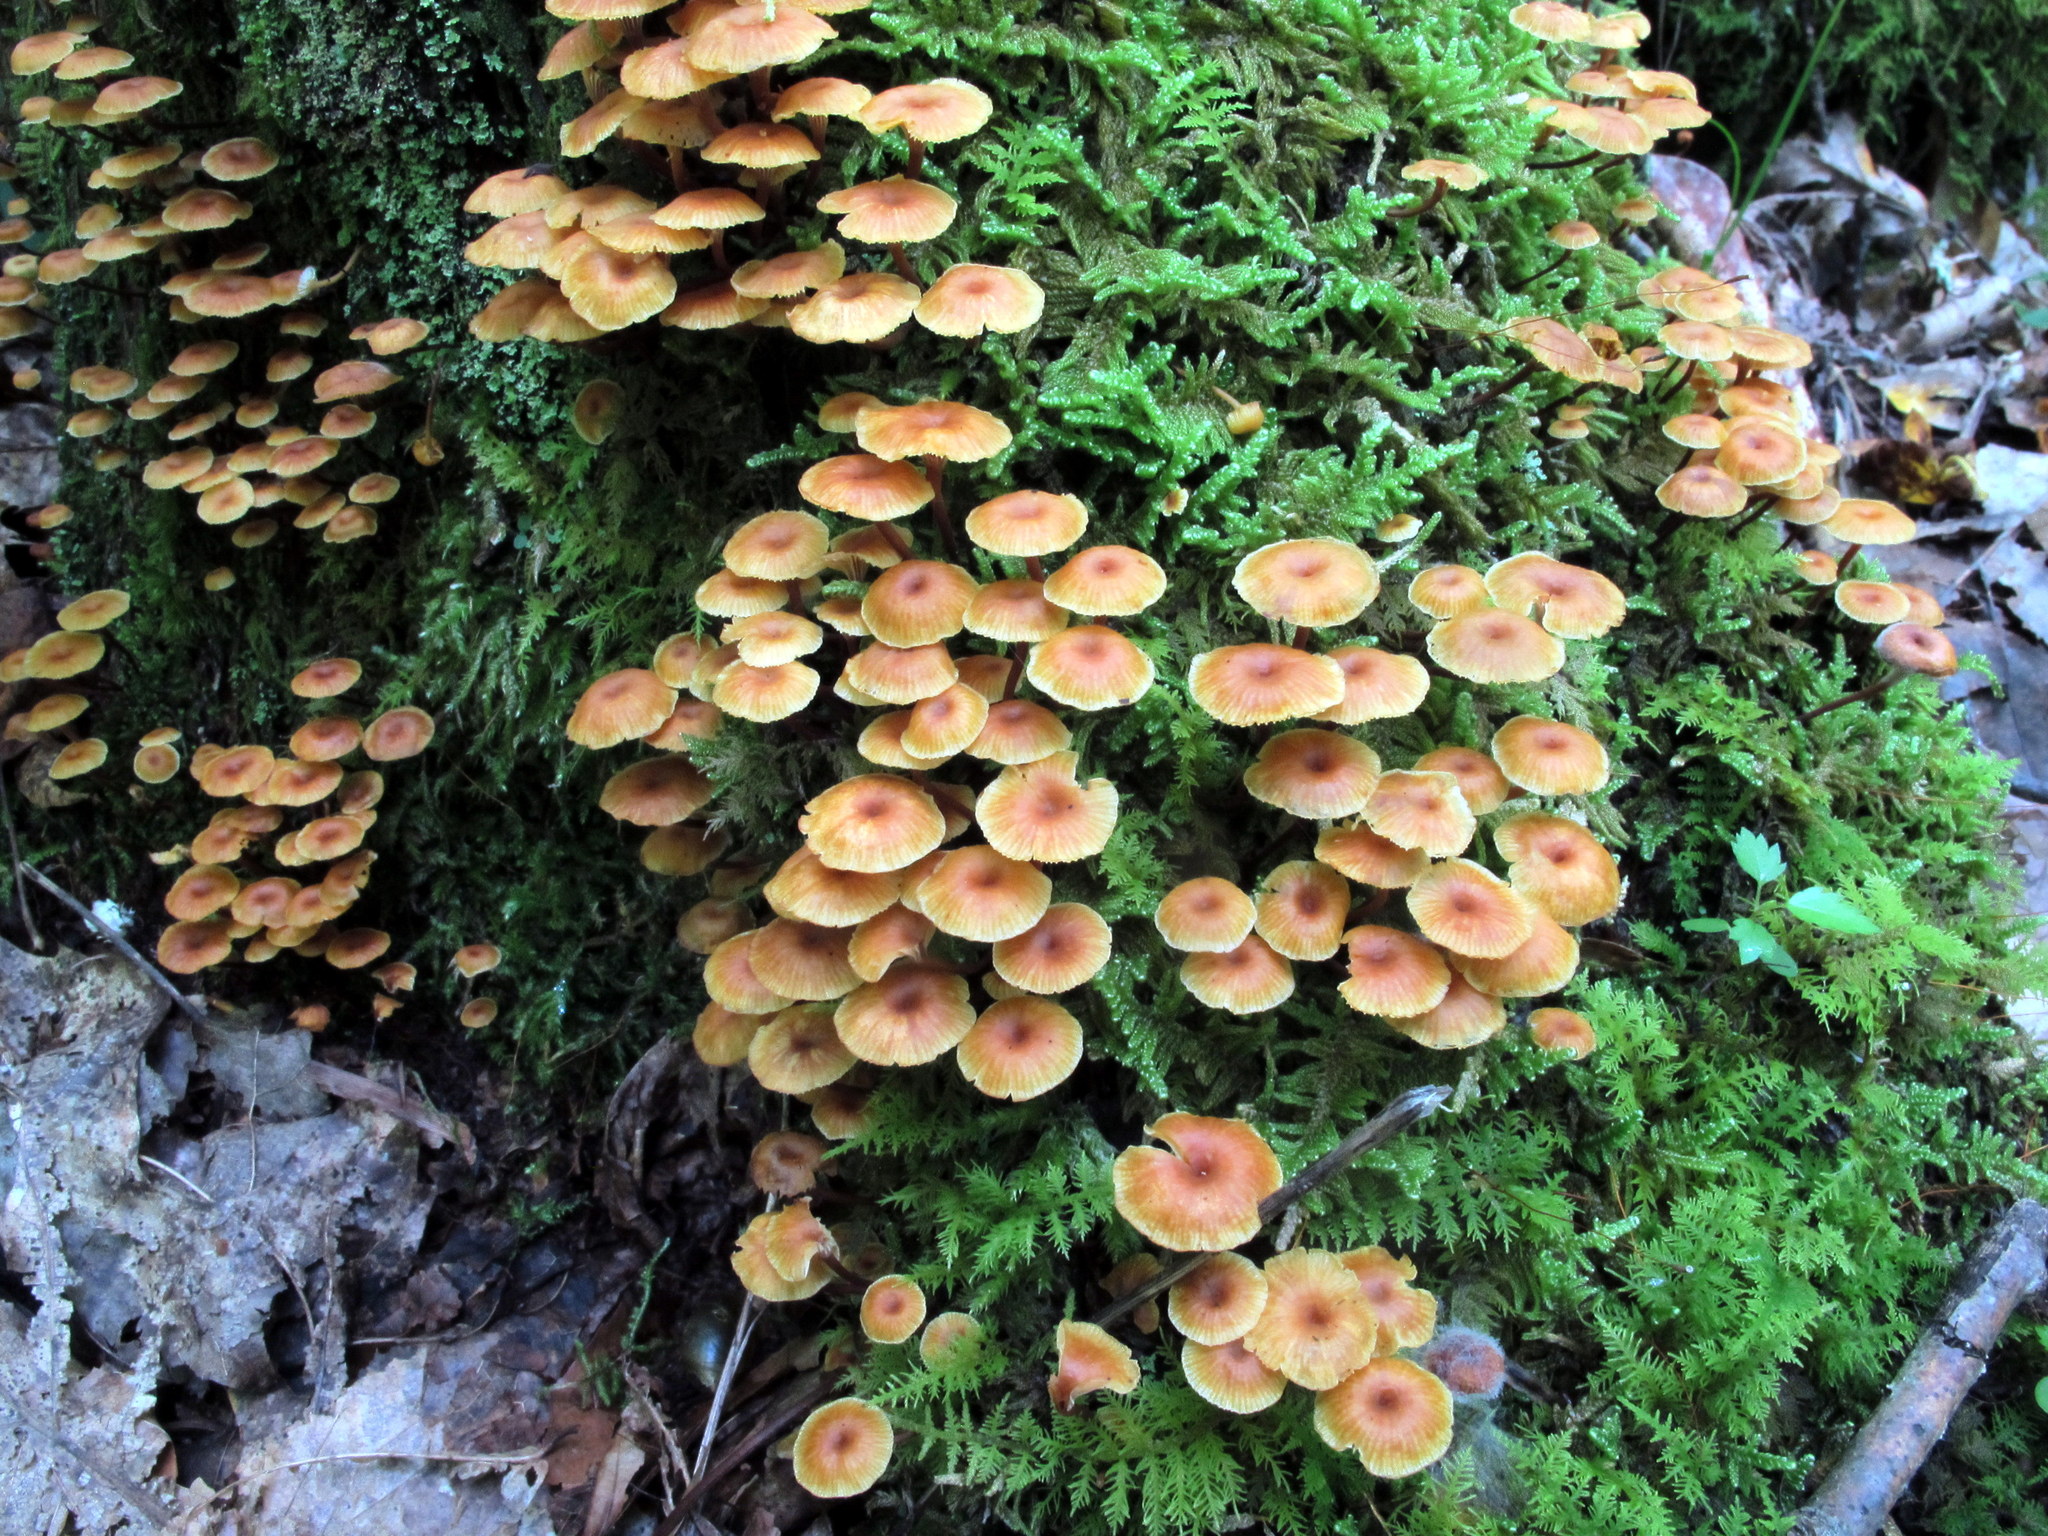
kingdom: Fungi
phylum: Basidiomycota
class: Agaricomycetes
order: Agaricales
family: Mycenaceae
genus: Xeromphalina
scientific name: Xeromphalina campanella
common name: Pinewood gingertail
